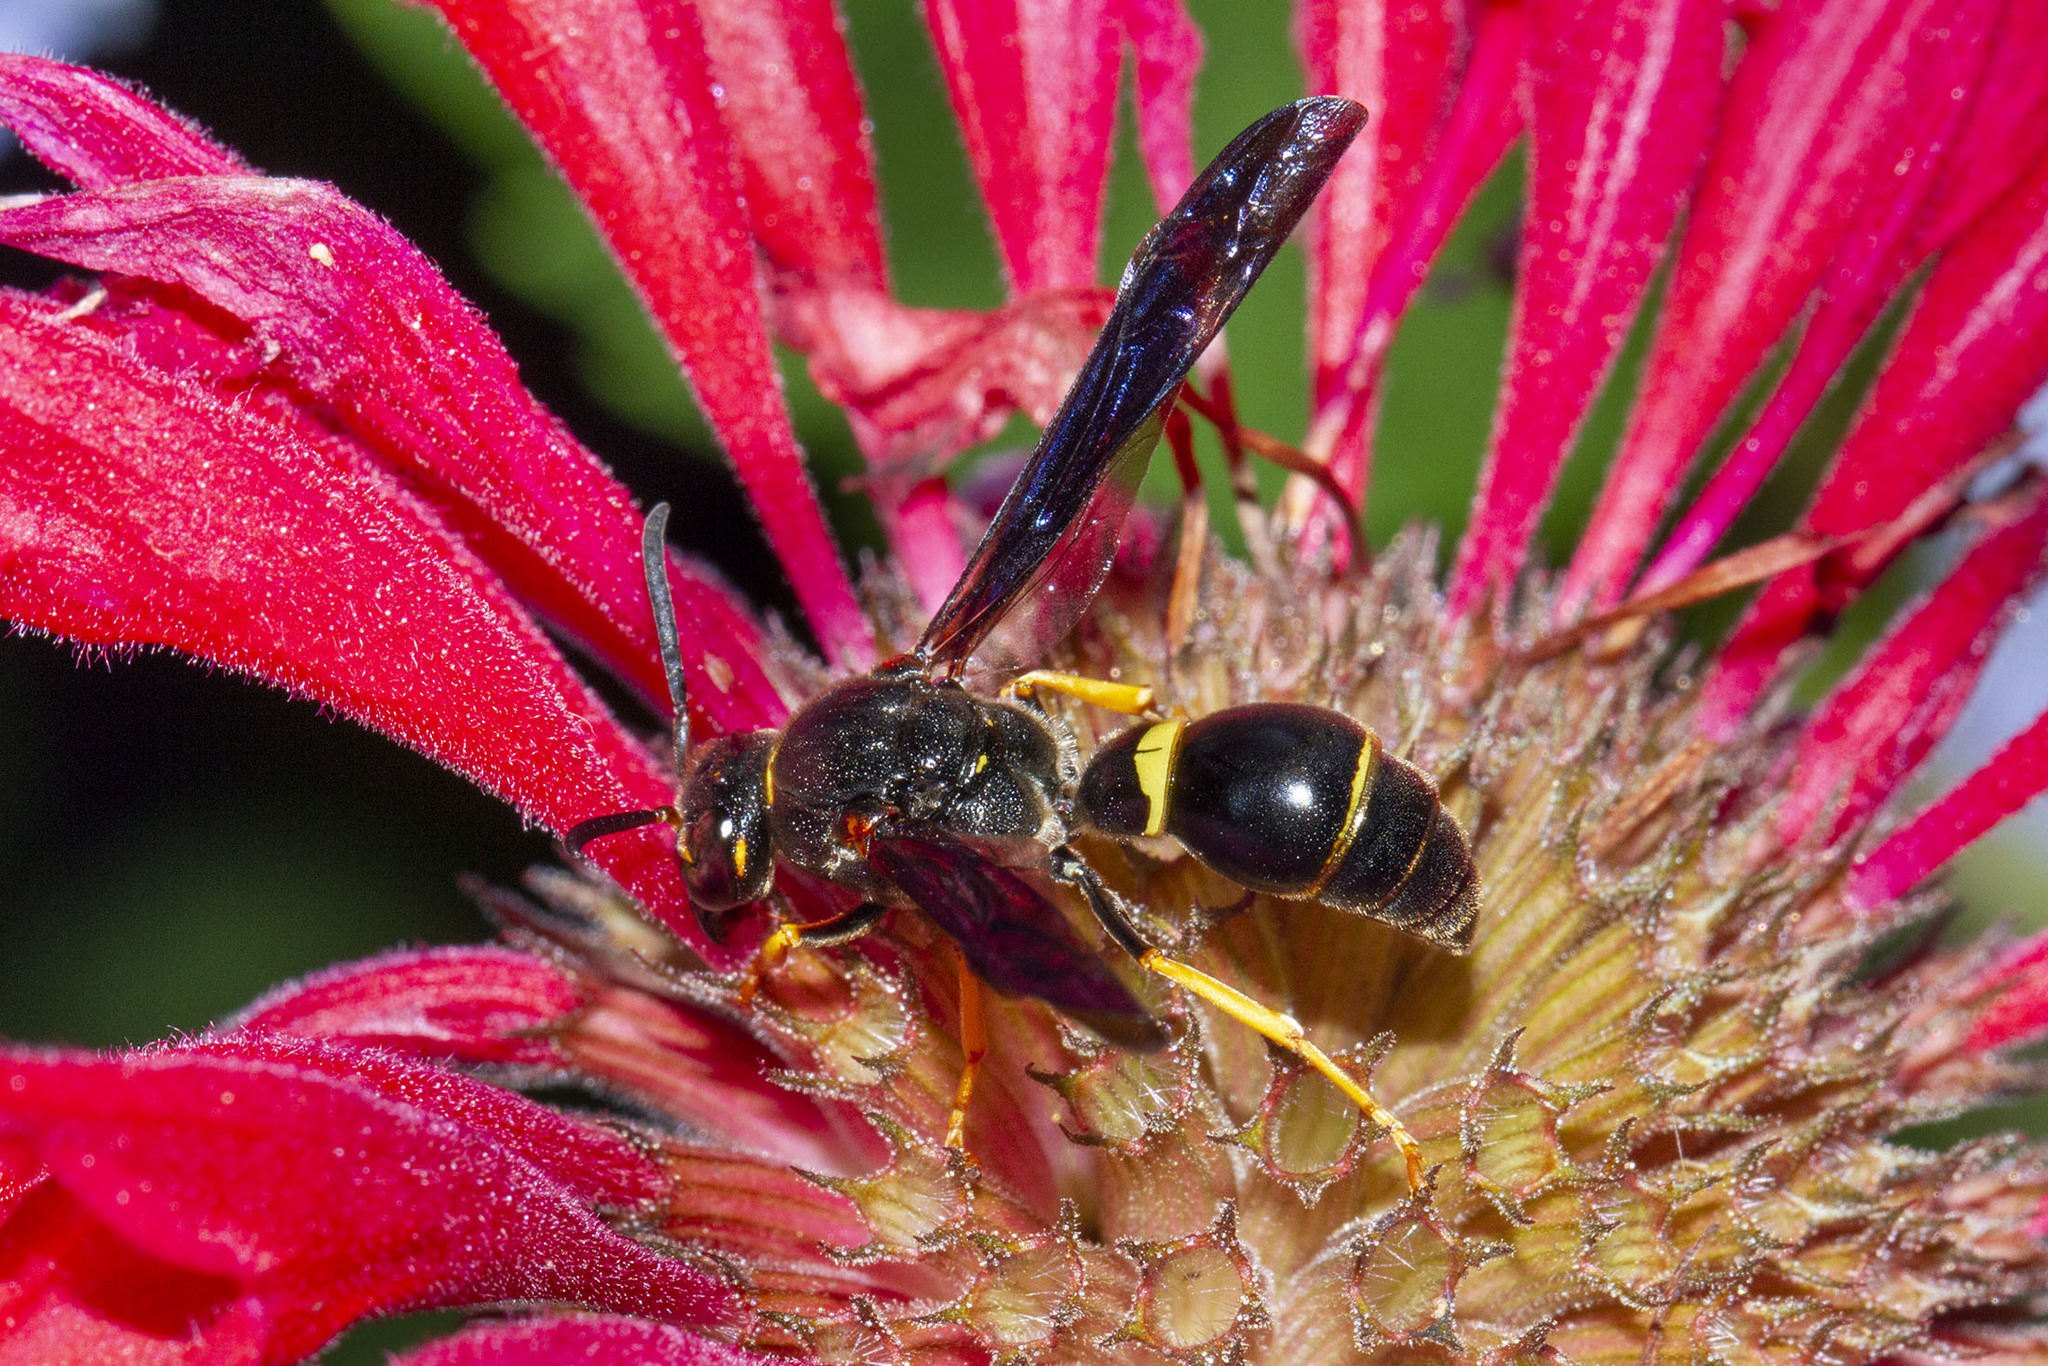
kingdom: Animalia
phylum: Arthropoda
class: Insecta
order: Hymenoptera
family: Eumenidae
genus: Parazumia
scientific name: Parazumia symmorpha
